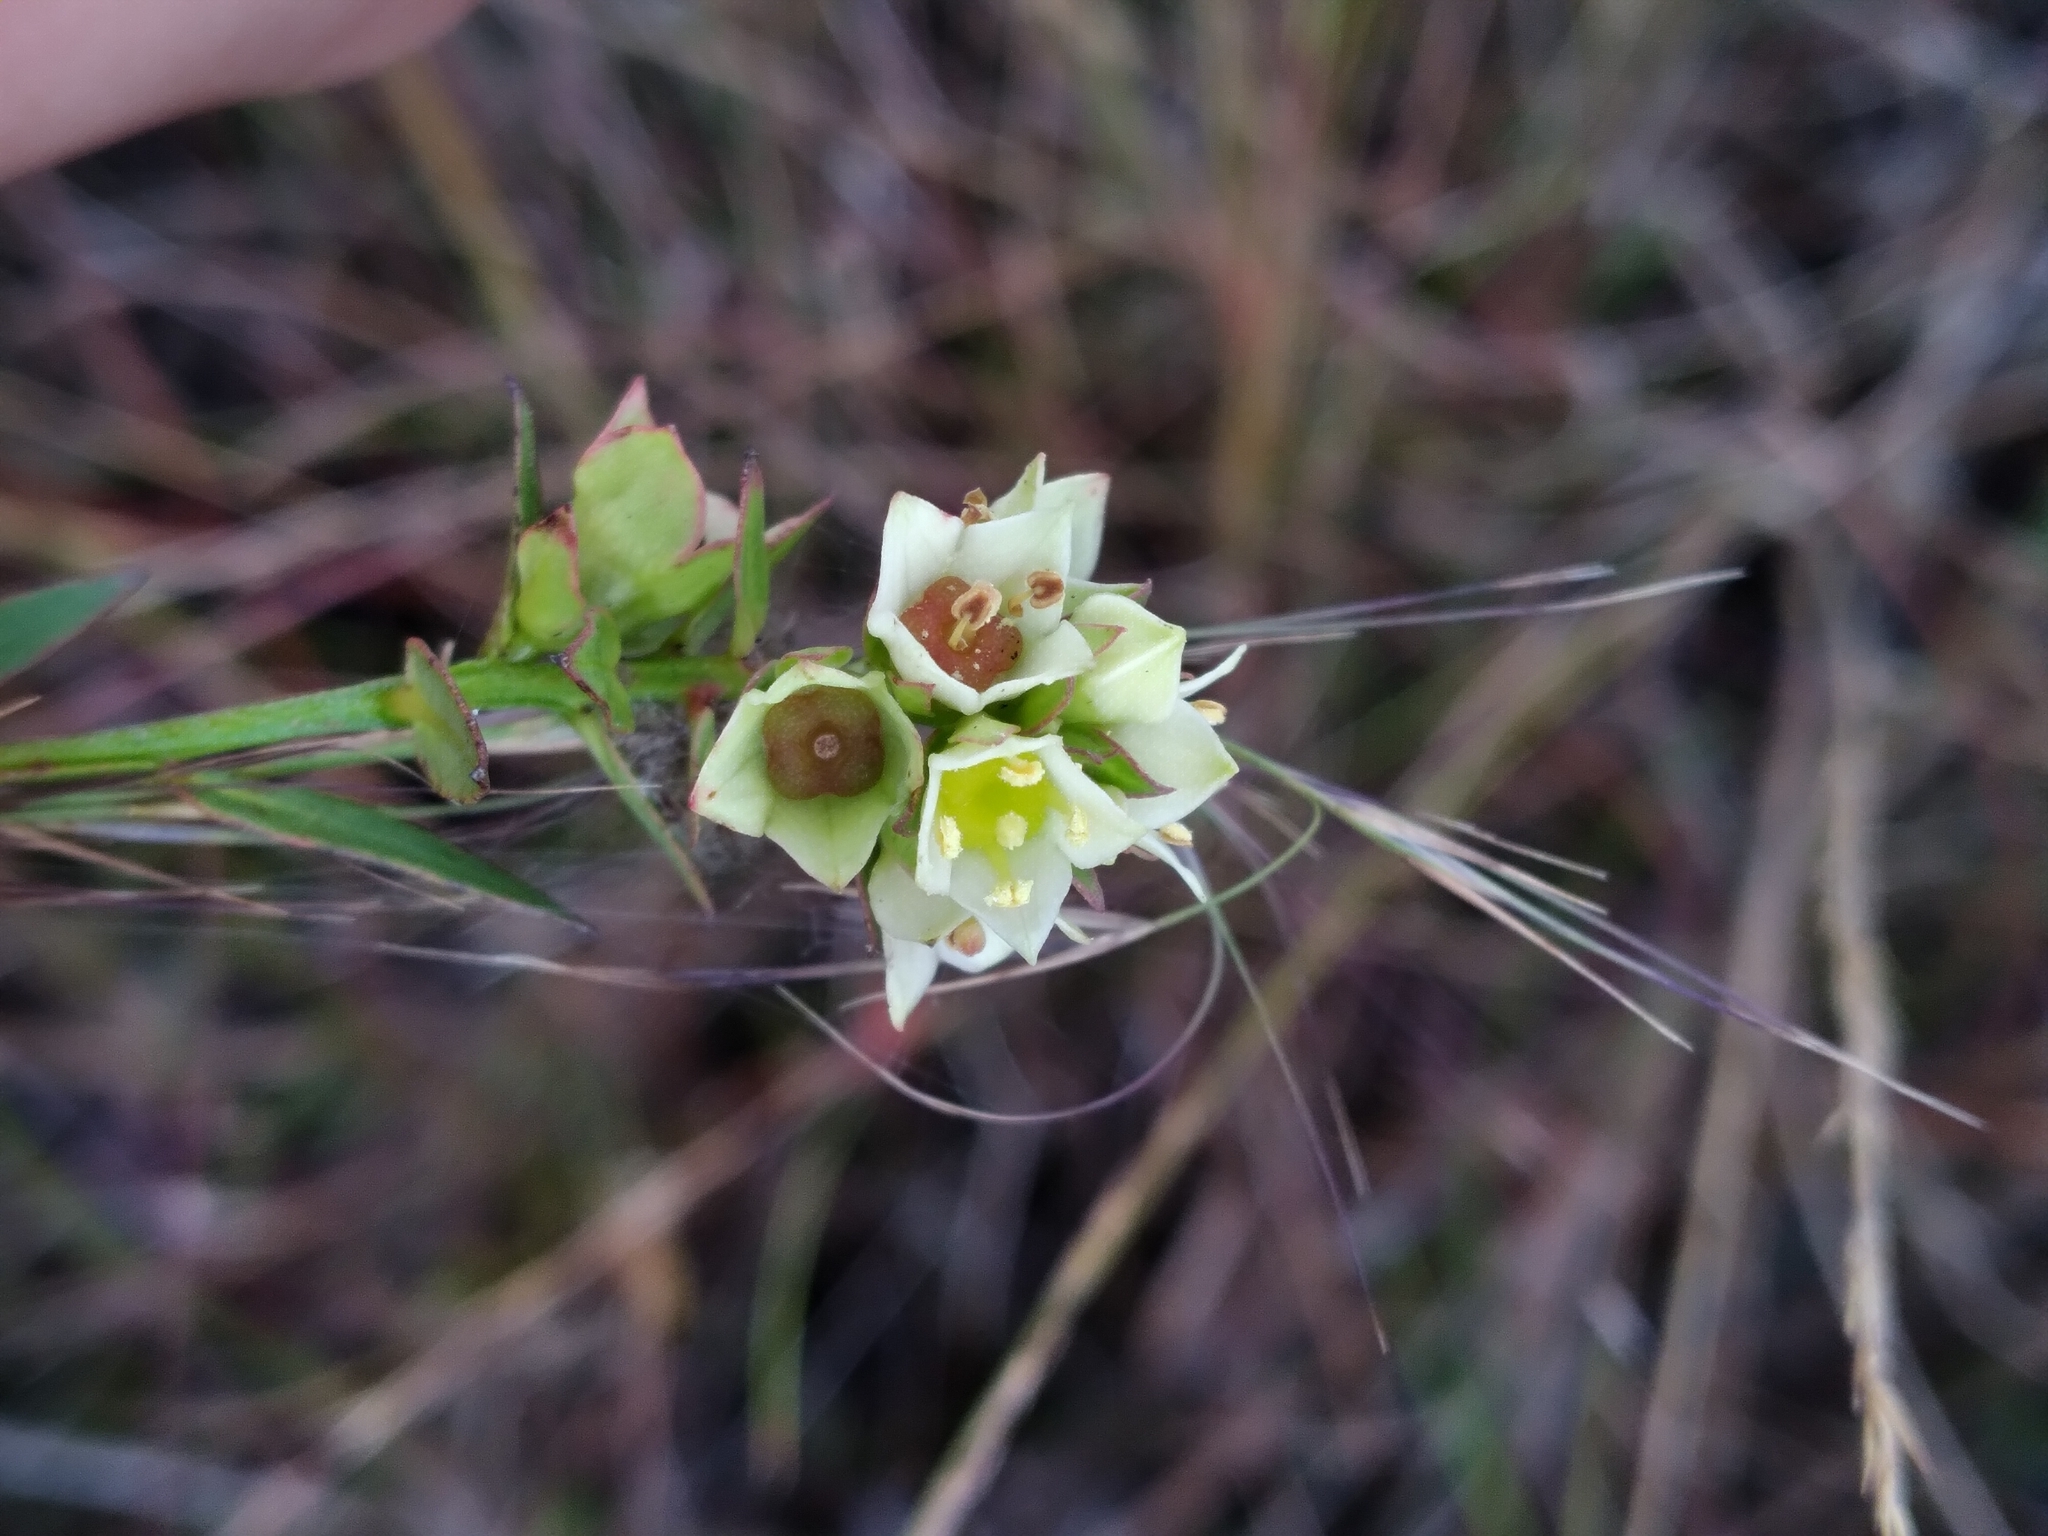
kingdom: Plantae
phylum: Tracheophyta
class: Magnoliopsida
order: Myrtales
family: Onagraceae
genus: Ludwigia
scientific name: Ludwigia suffruticosa
